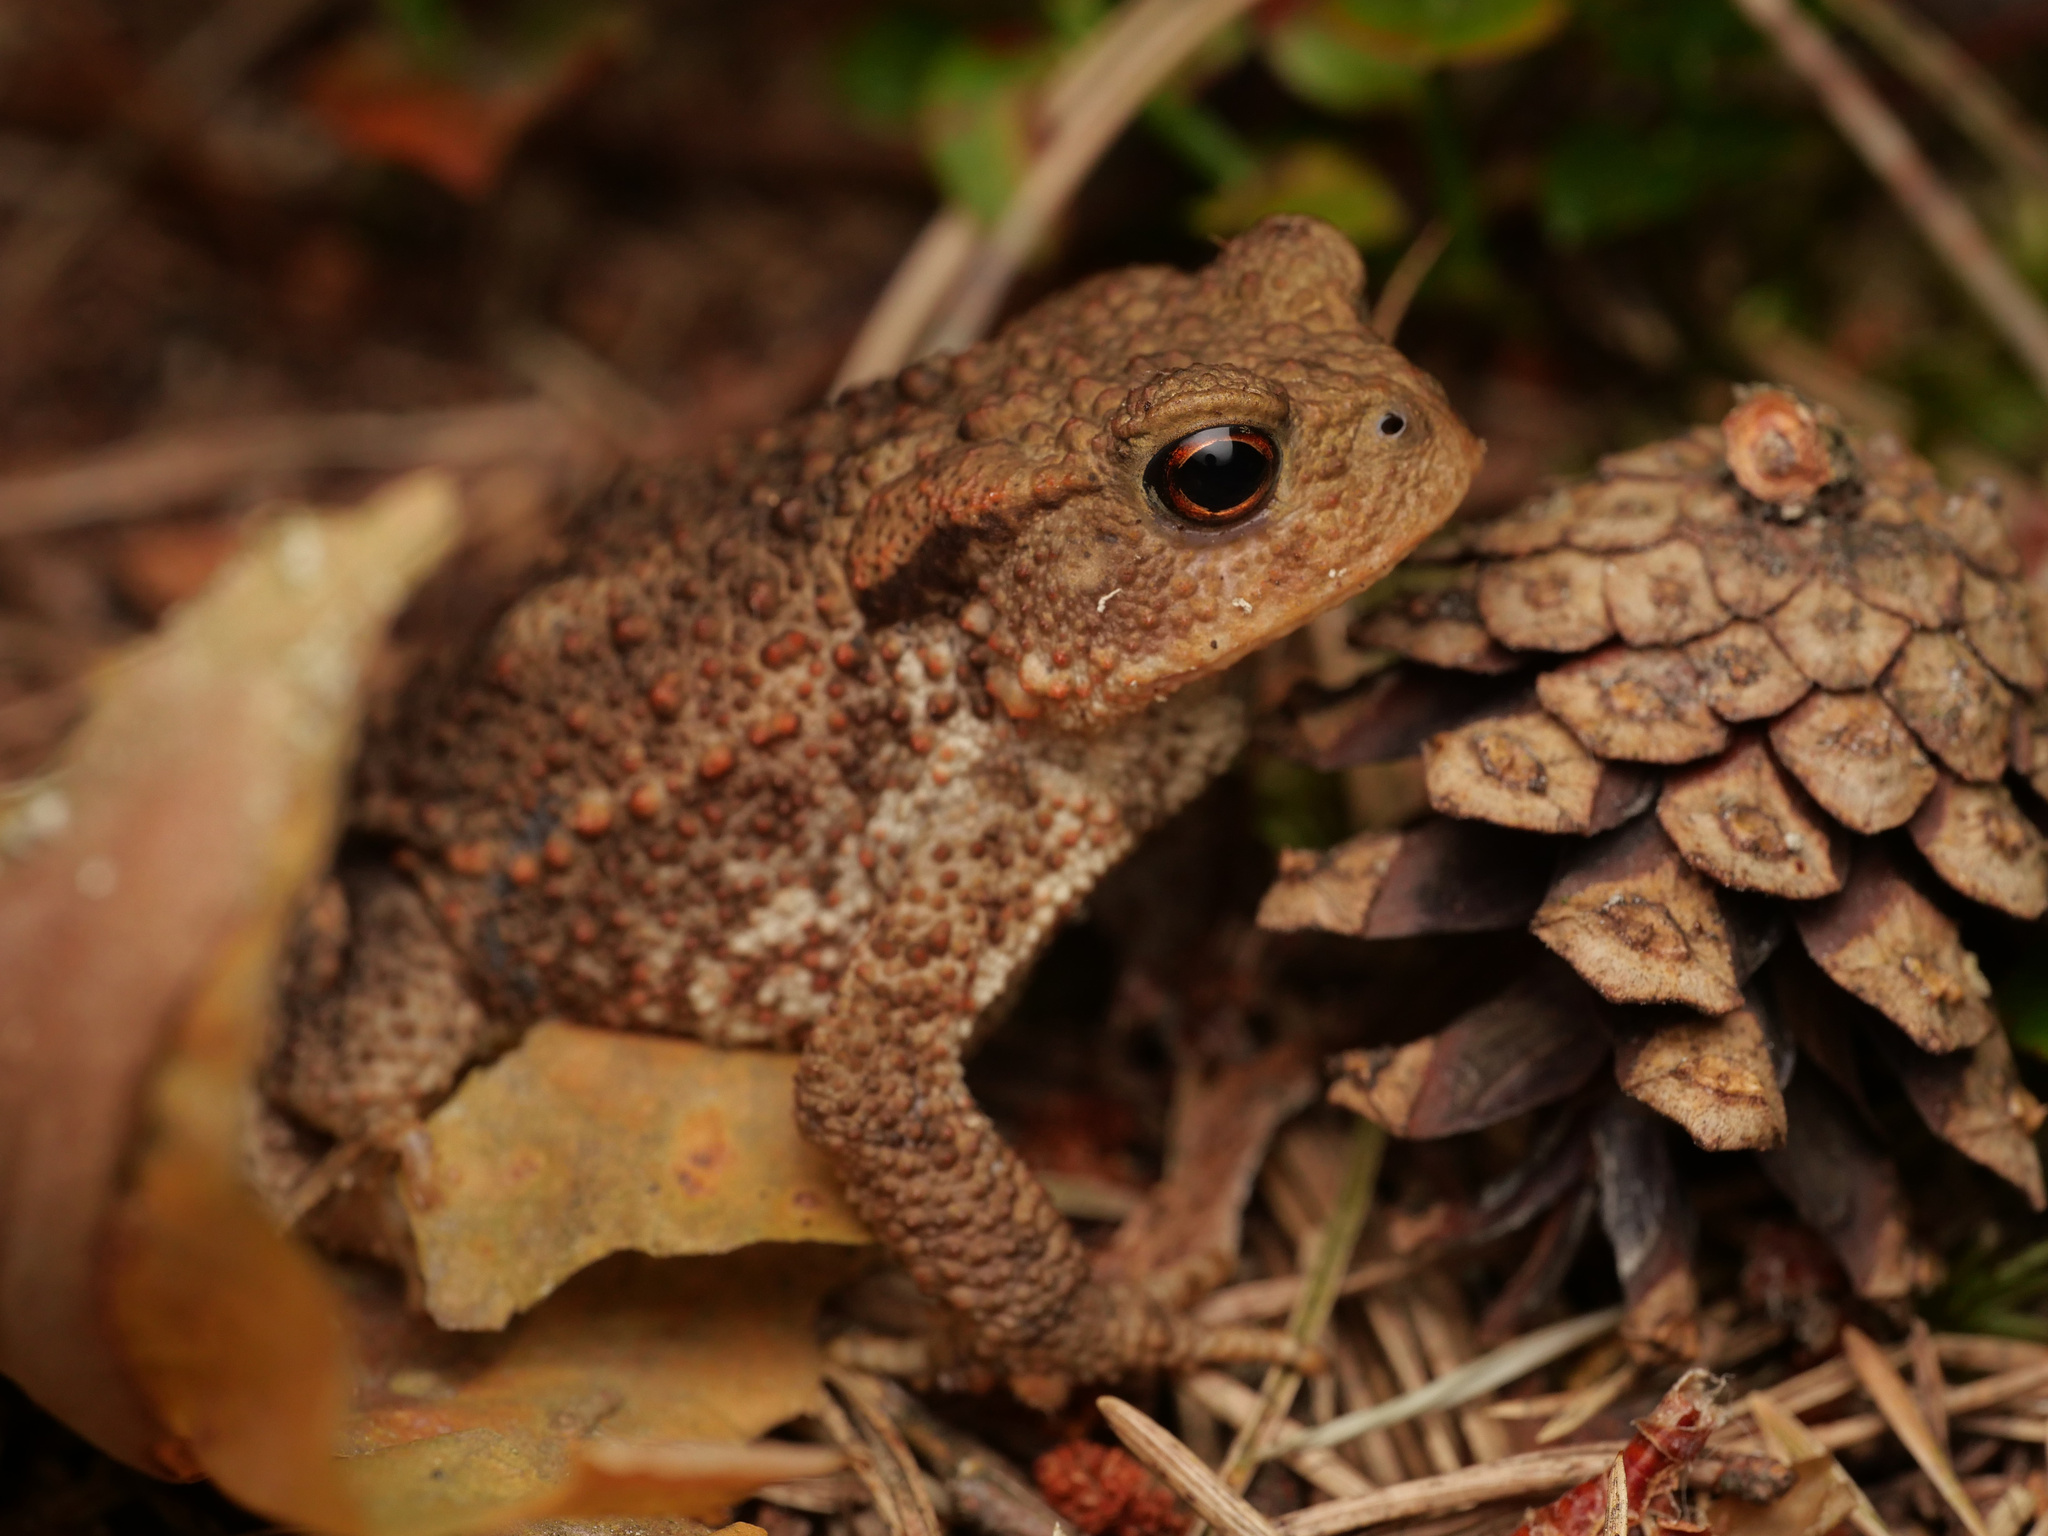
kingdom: Animalia
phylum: Chordata
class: Amphibia
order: Anura
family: Bufonidae
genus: Bufo
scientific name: Bufo bufo
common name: Common toad
